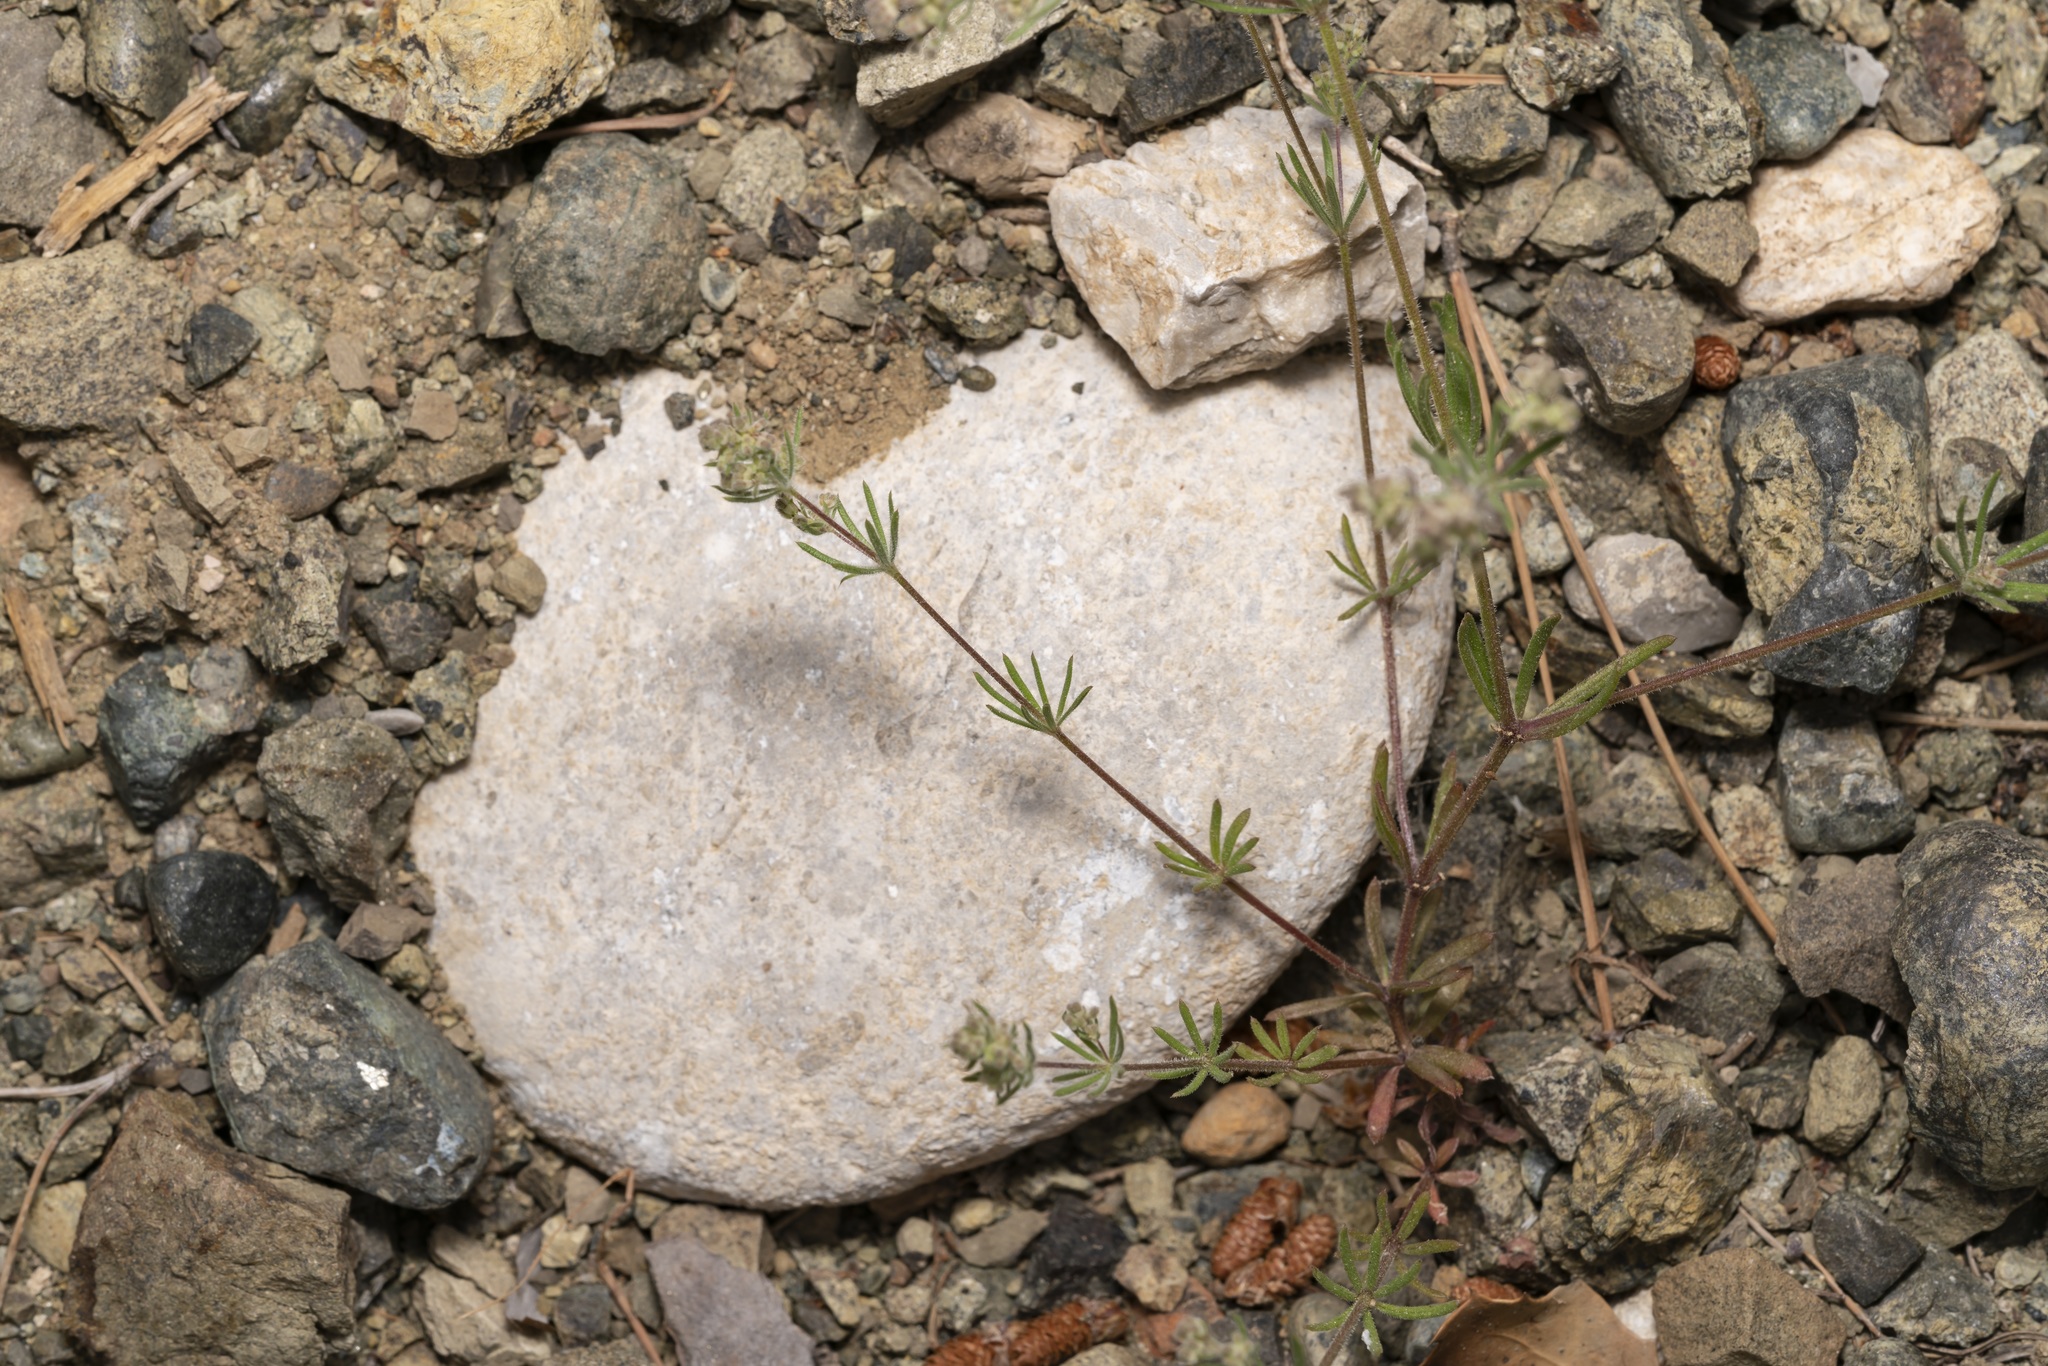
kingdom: Plantae
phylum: Tracheophyta
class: Magnoliopsida
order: Gentianales
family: Rubiaceae
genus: Galium
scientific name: Galium floribundum
